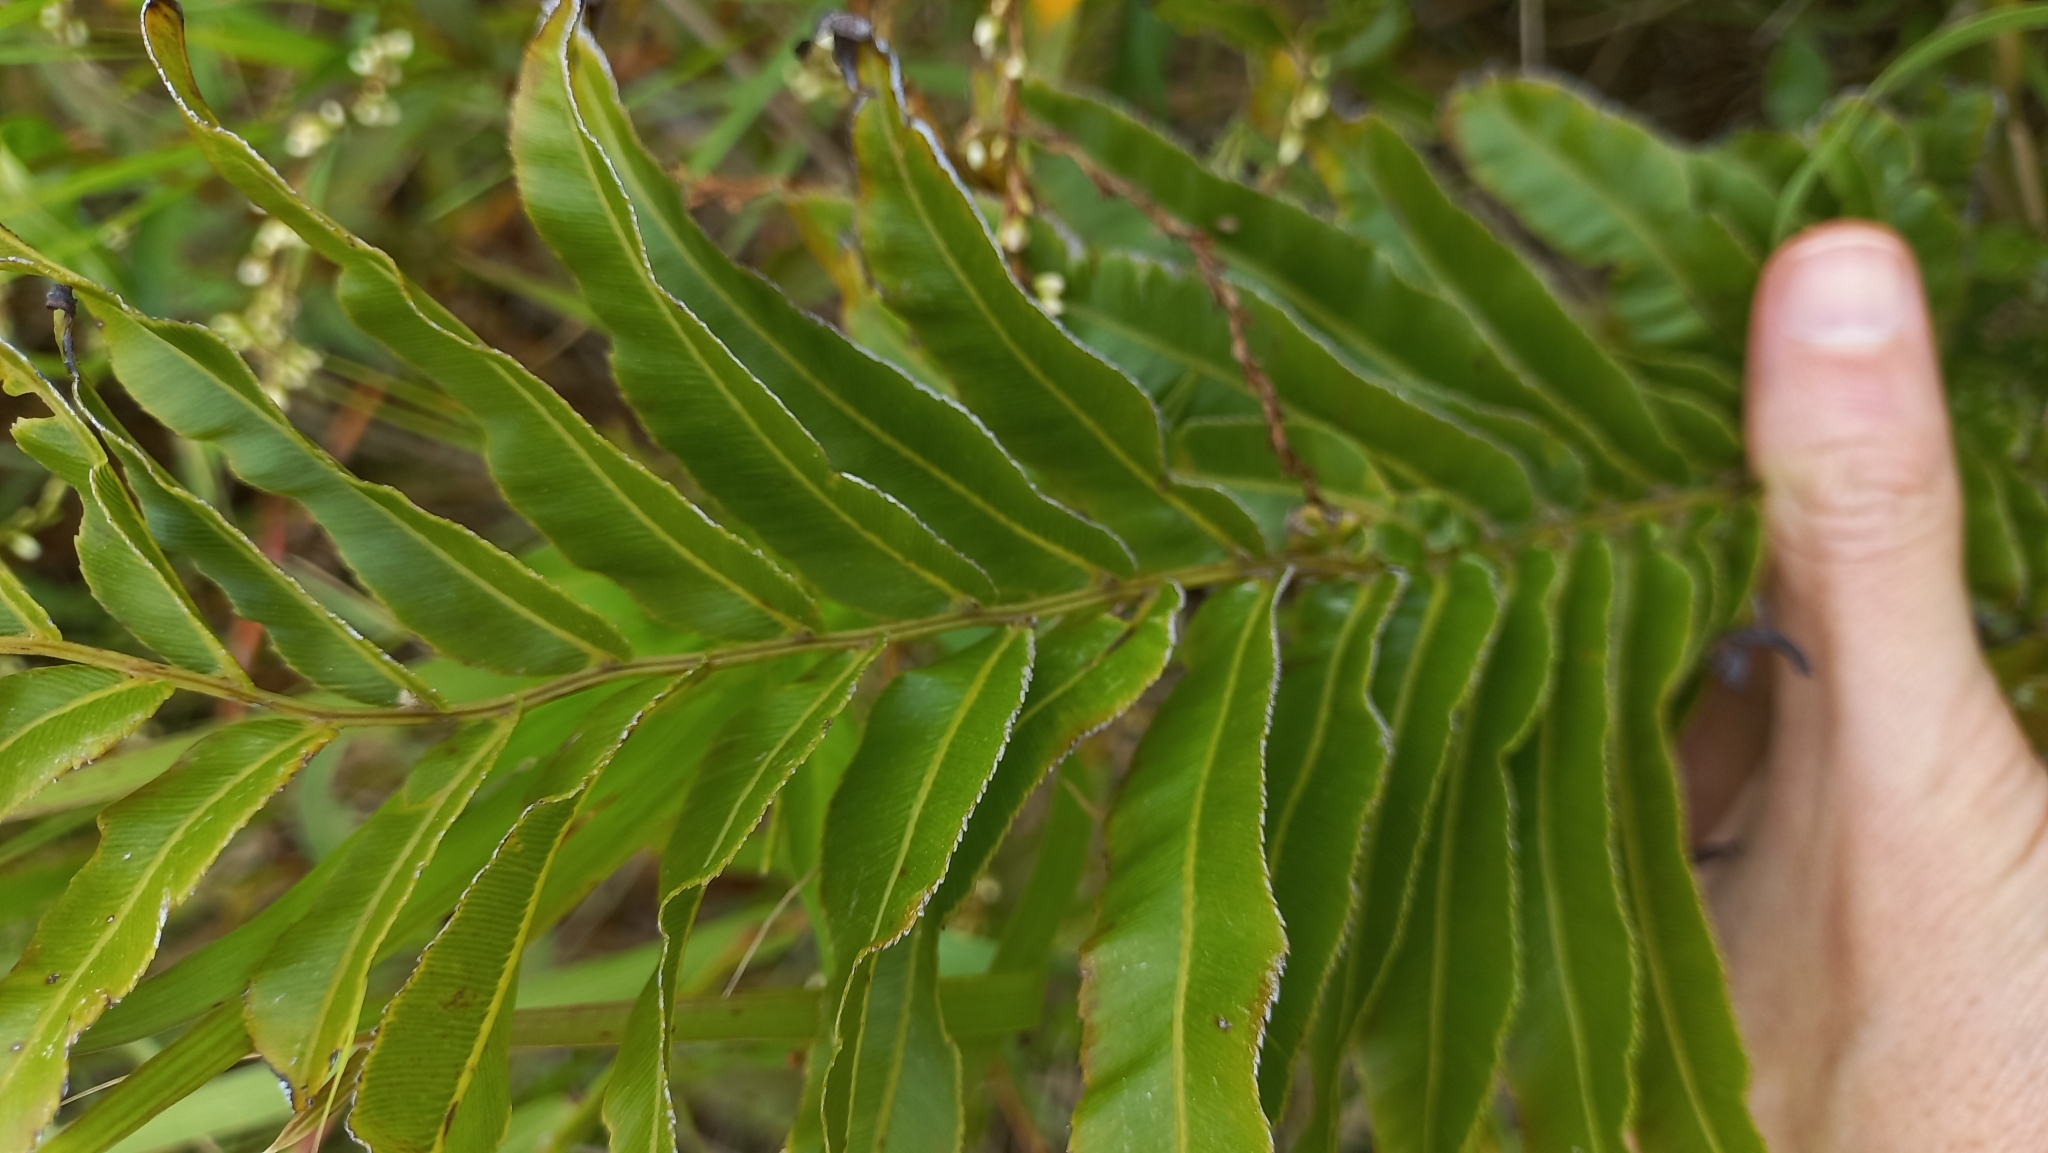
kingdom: Plantae
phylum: Tracheophyta
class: Polypodiopsida
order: Polypodiales
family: Blechnaceae
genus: Telmatoblechnum
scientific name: Telmatoblechnum serrulatum
